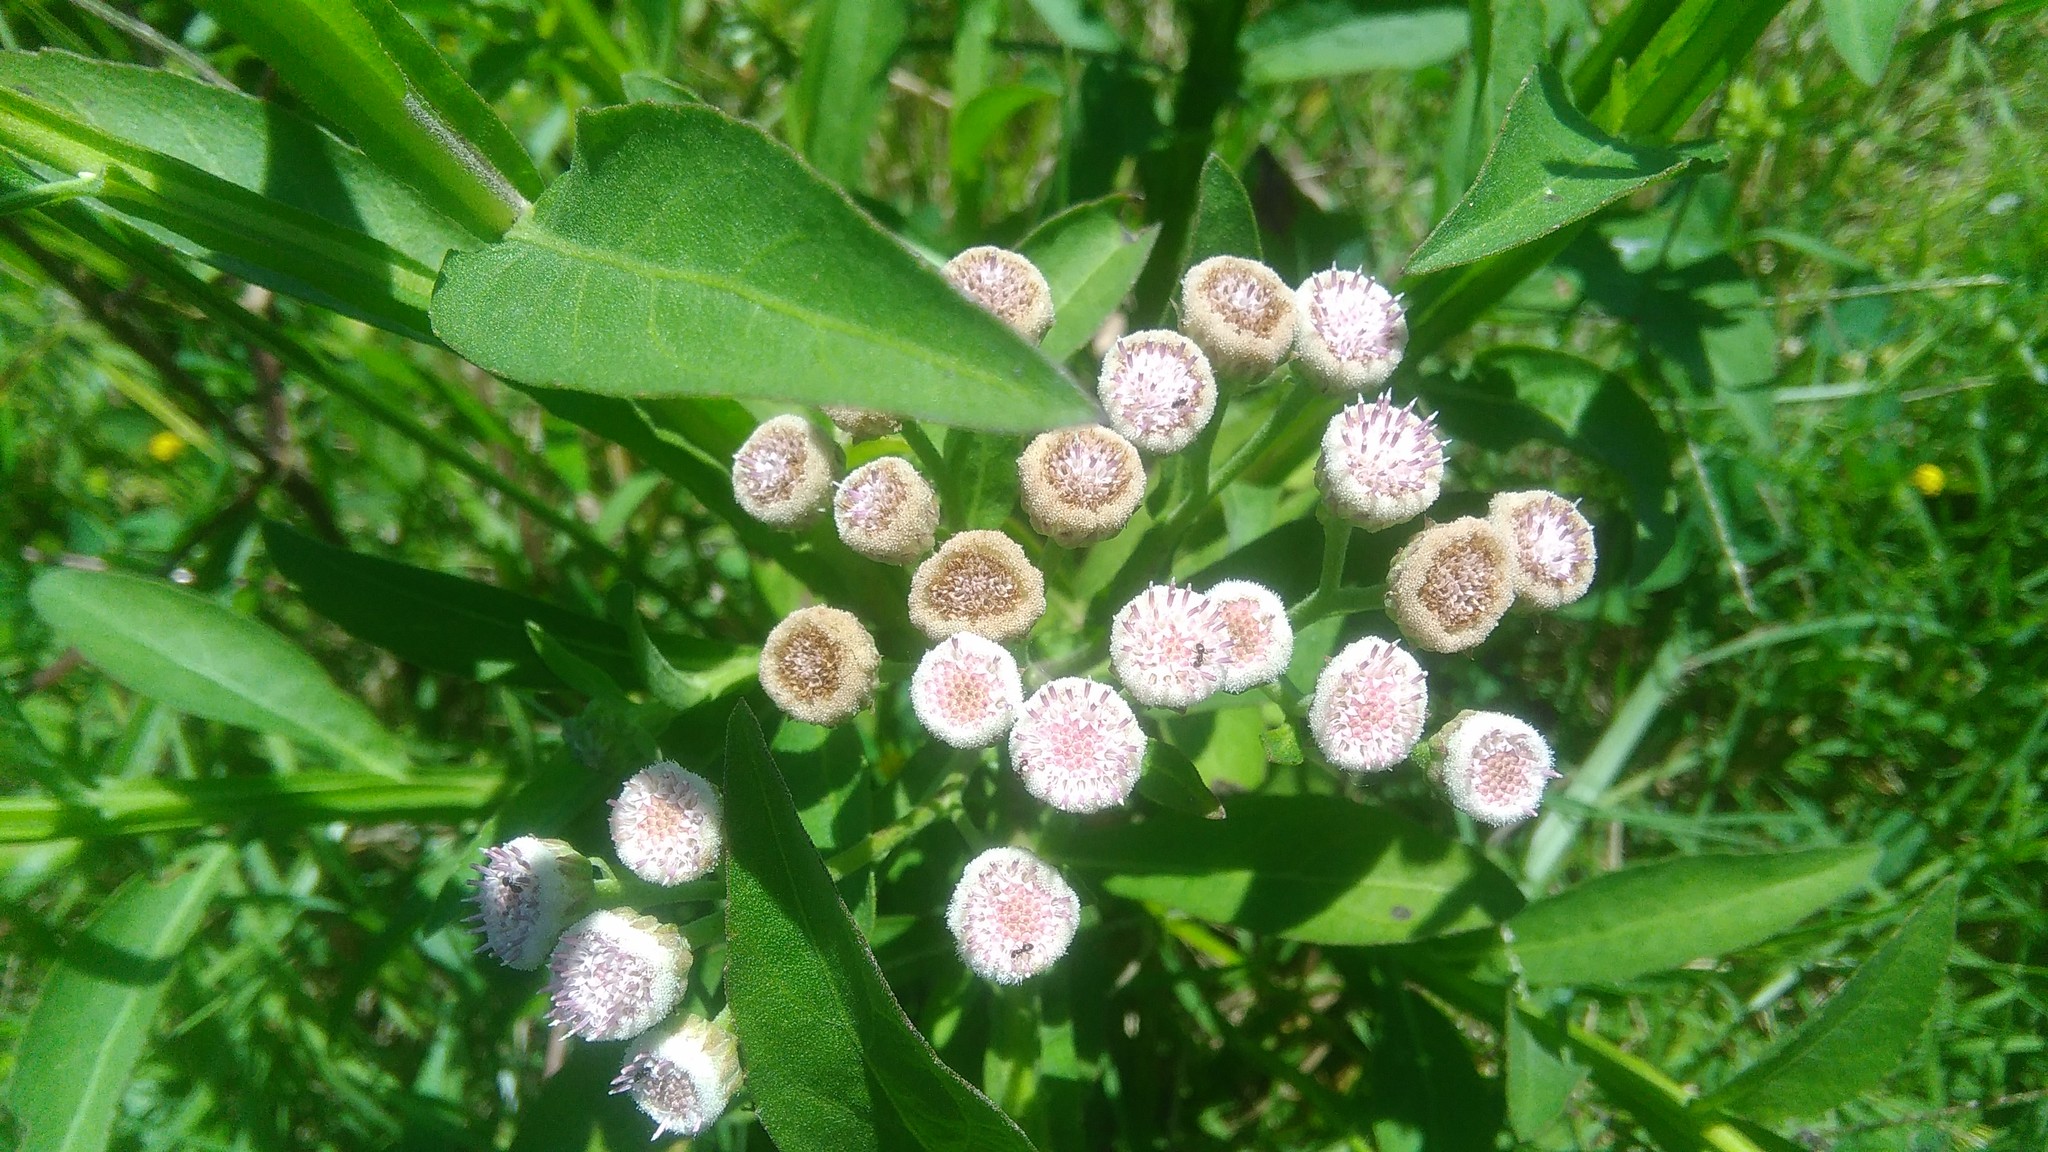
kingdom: Plantae
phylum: Tracheophyta
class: Magnoliopsida
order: Asterales
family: Asteraceae
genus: Pluchea
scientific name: Pluchea sagittalis
